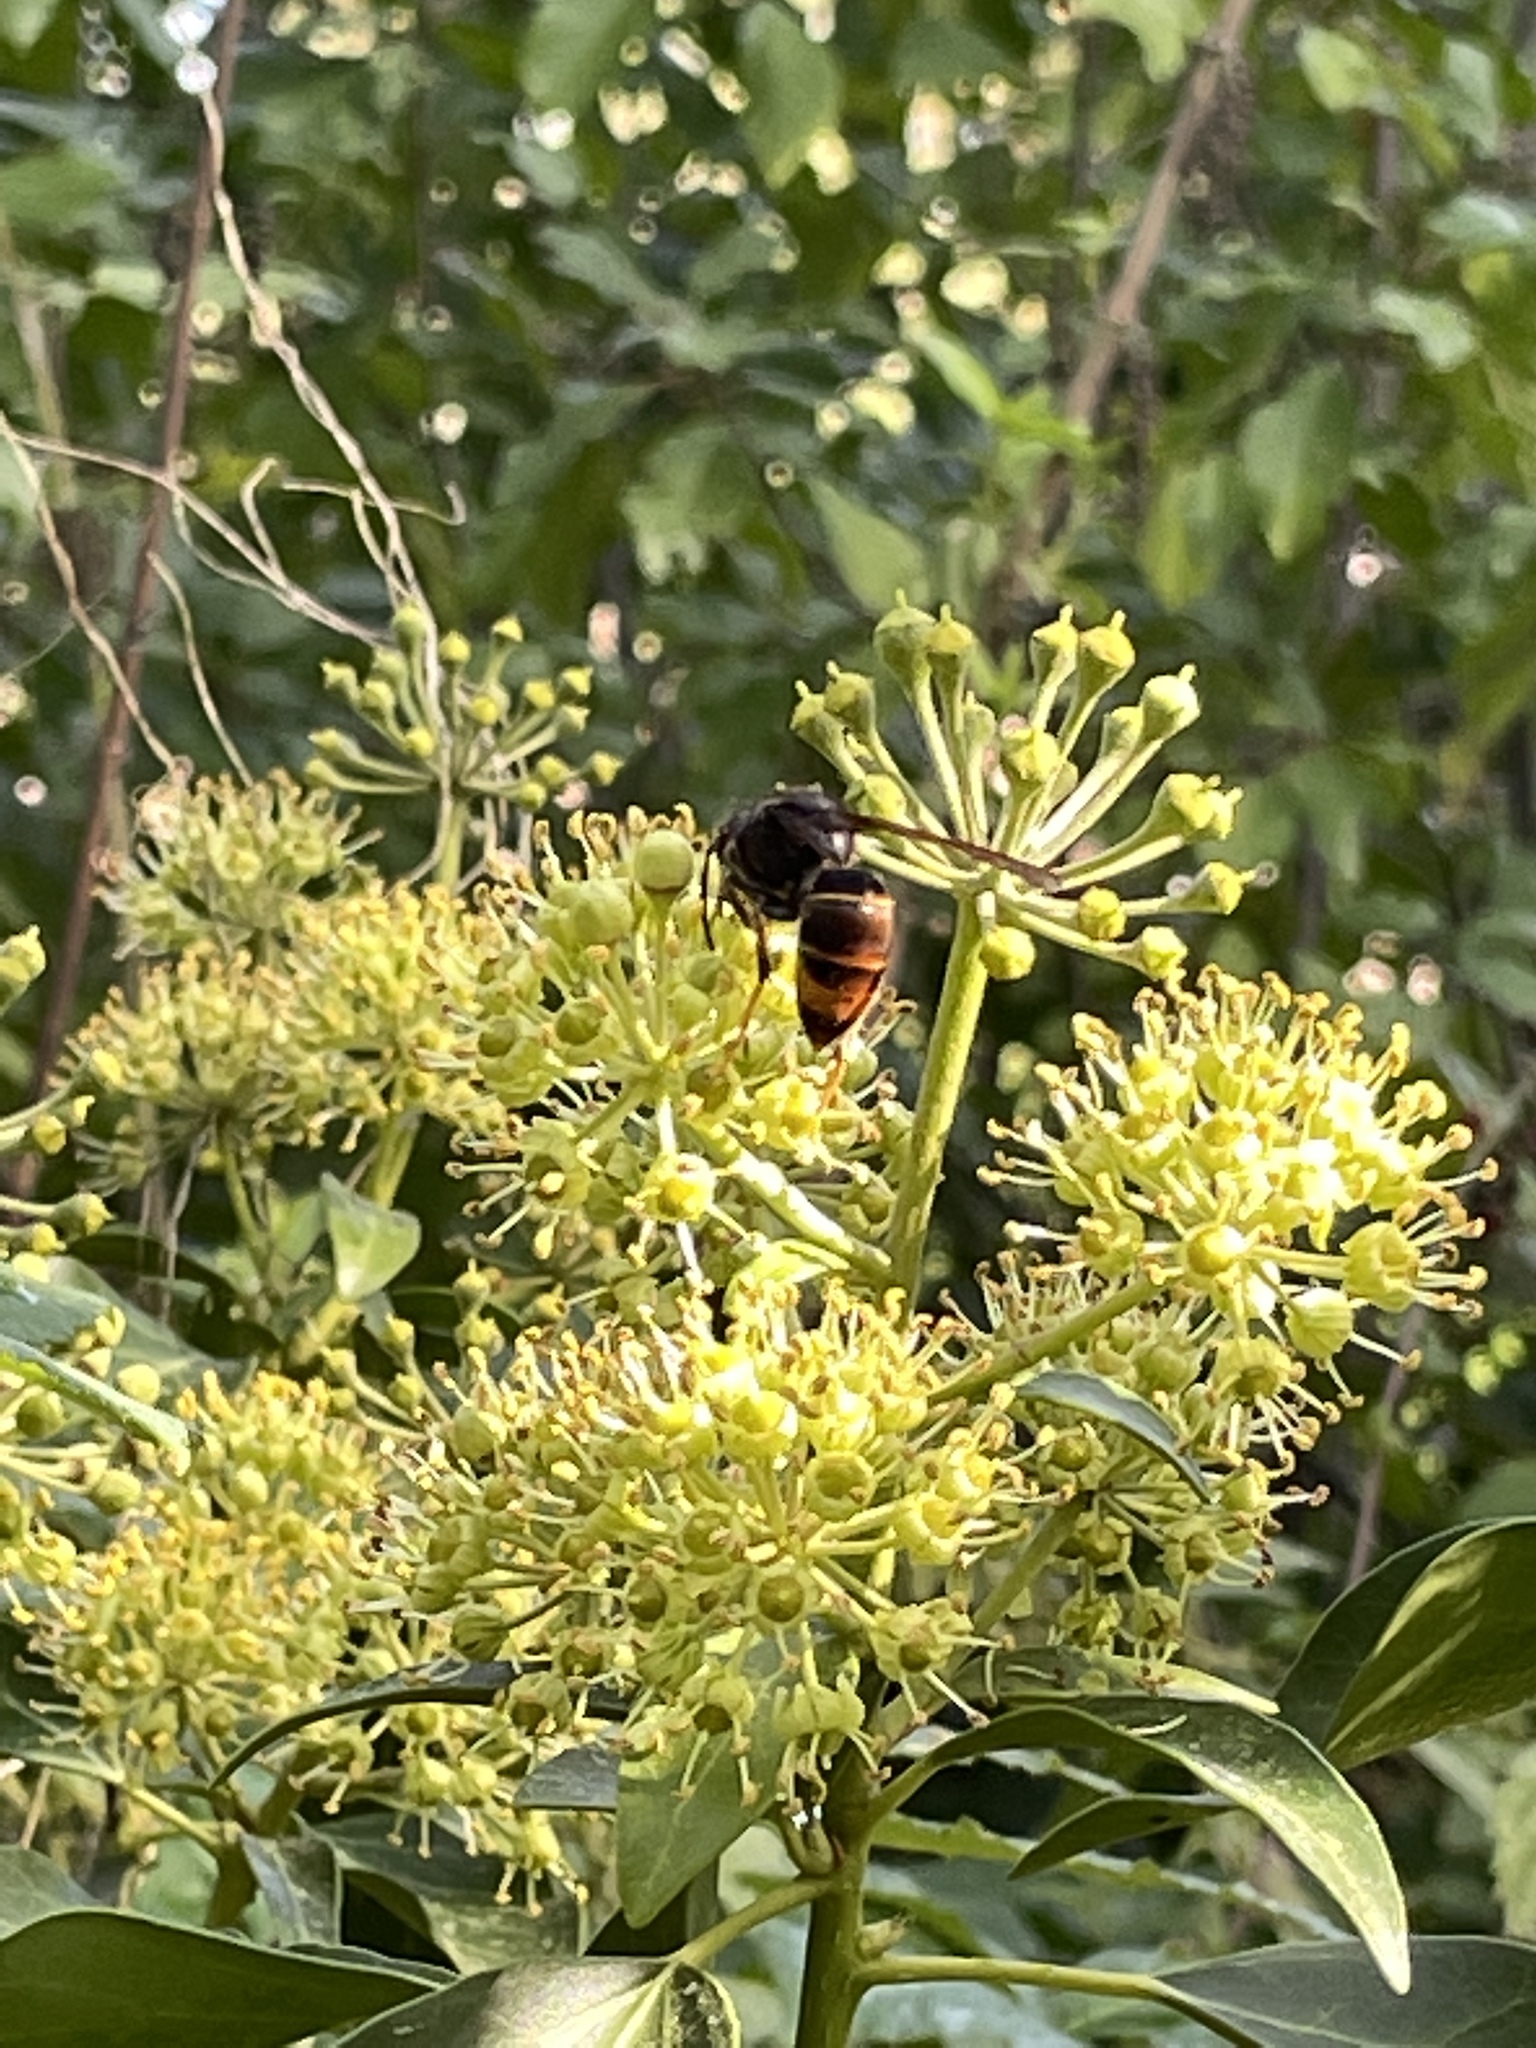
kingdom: Animalia
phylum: Arthropoda
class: Insecta
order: Hymenoptera
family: Vespidae
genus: Vespa
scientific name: Vespa velutina
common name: Asian hornet
